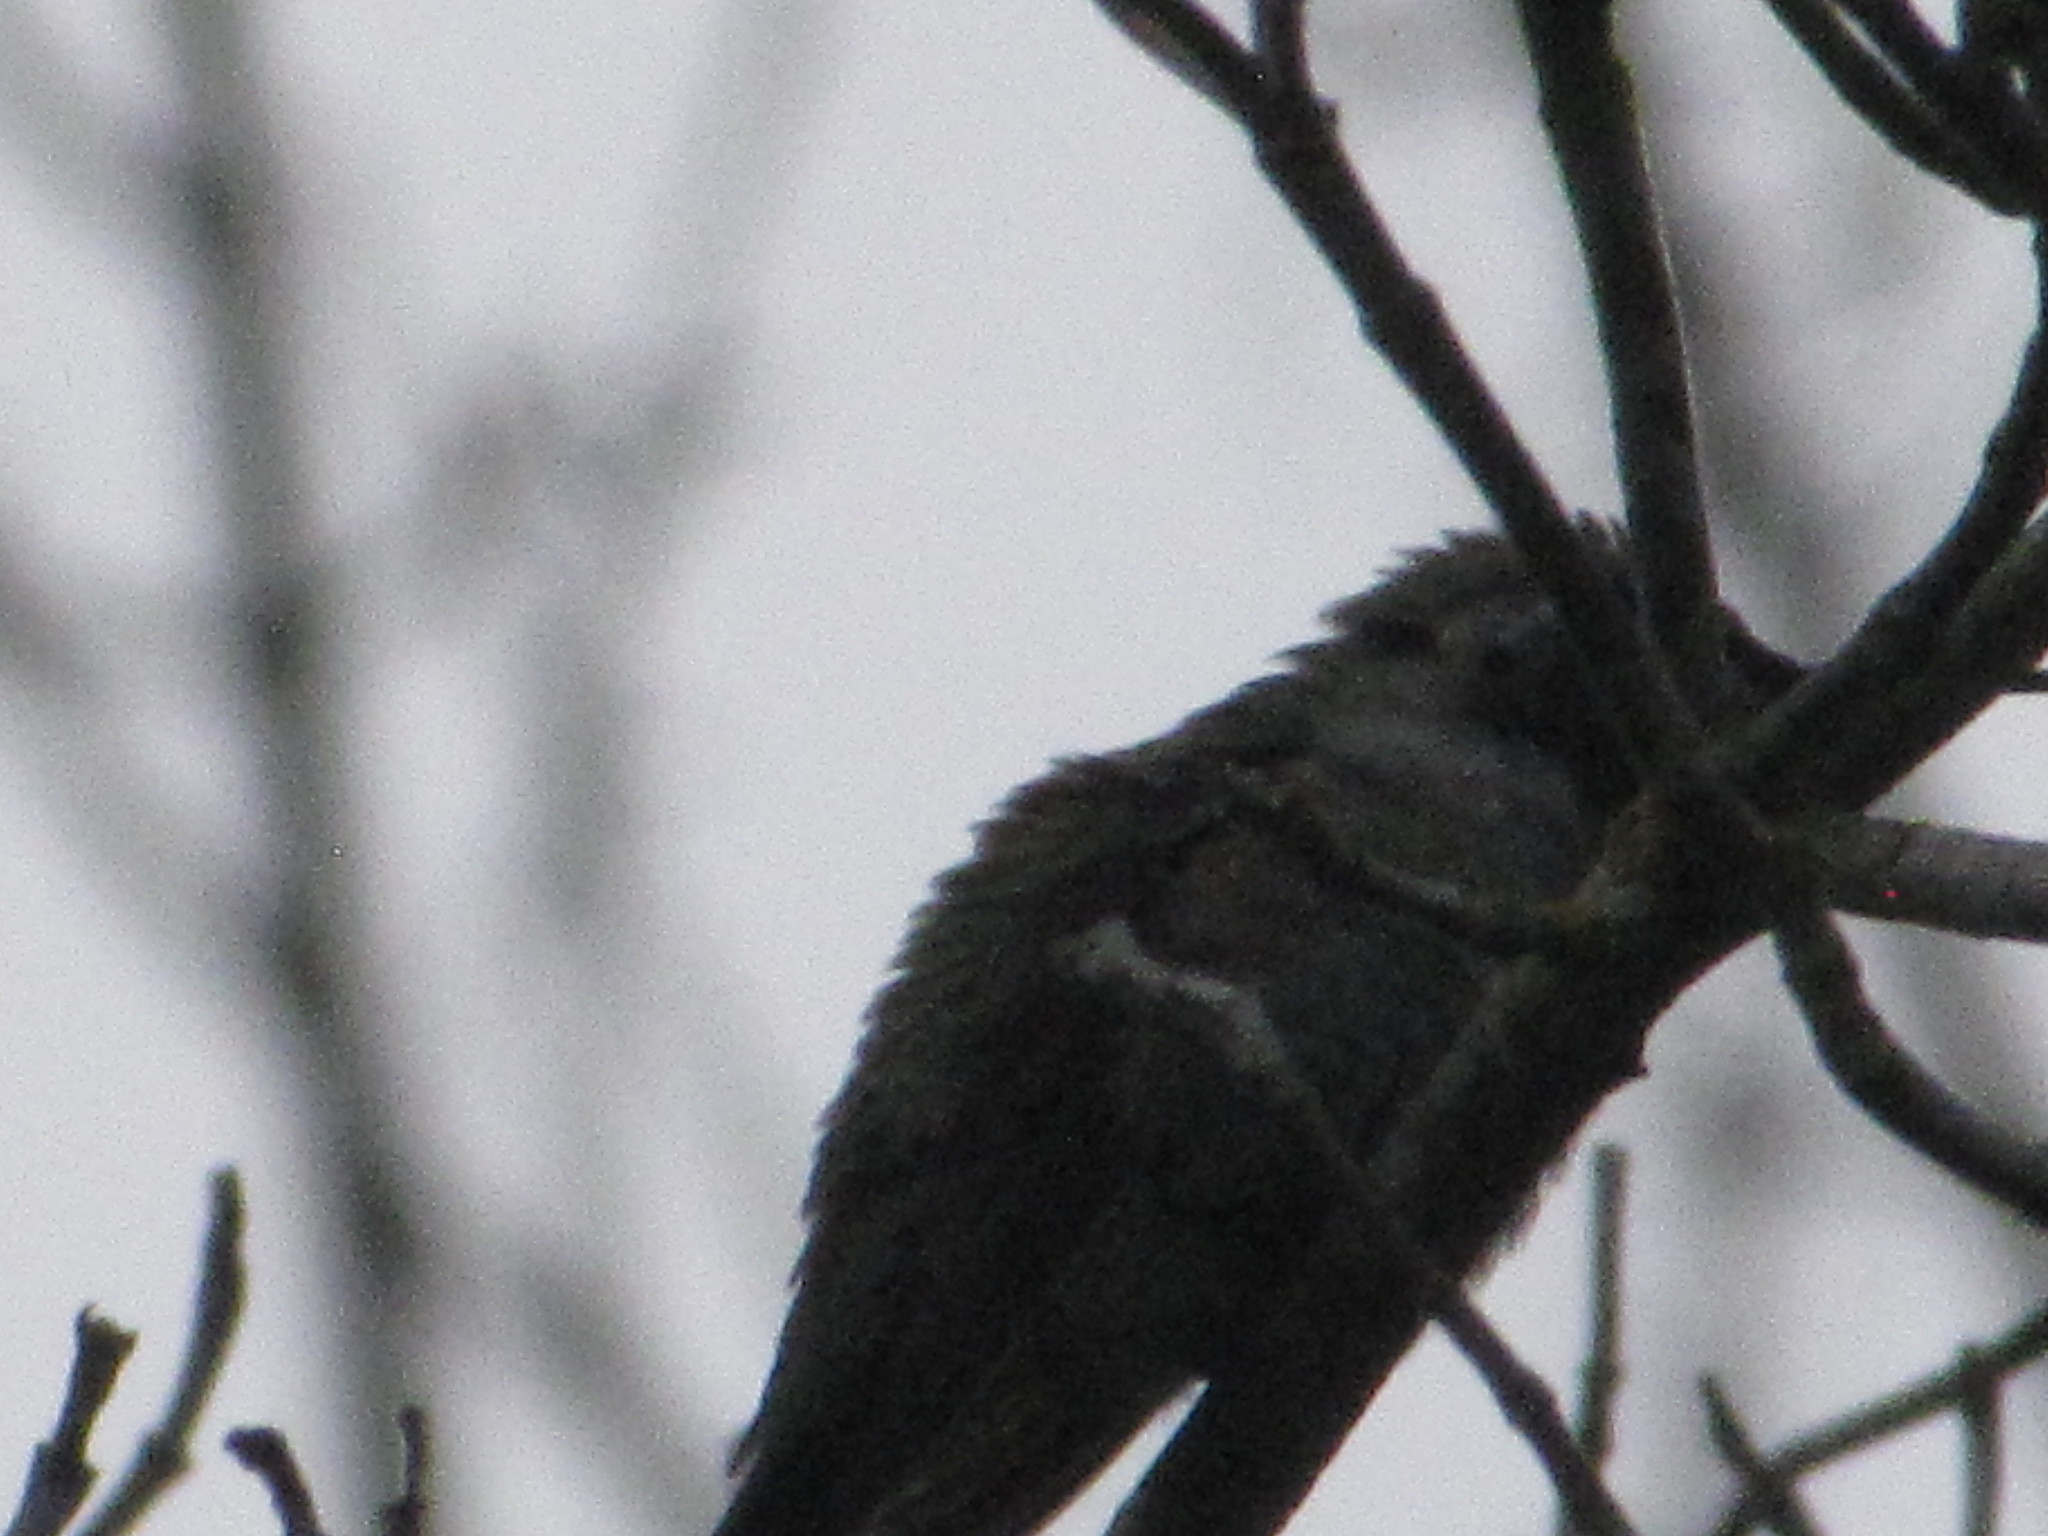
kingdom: Animalia
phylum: Chordata
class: Aves
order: Apodiformes
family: Trochilidae
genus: Calypte
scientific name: Calypte anna
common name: Anna's hummingbird
